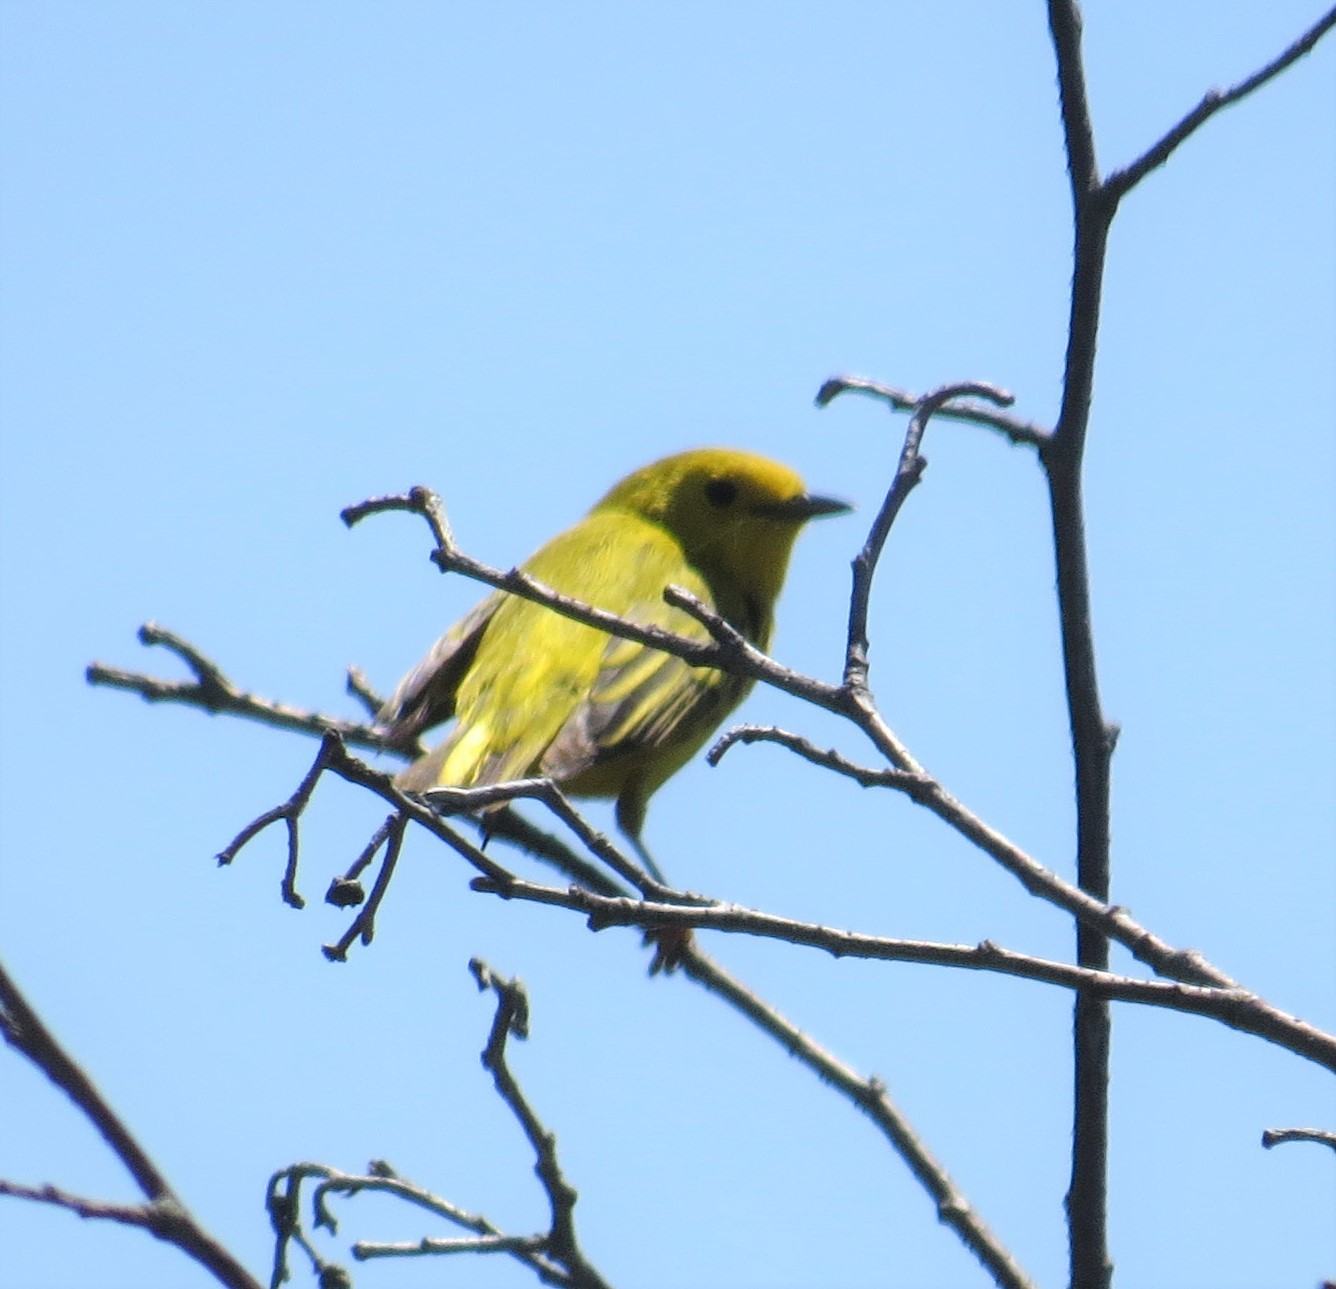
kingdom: Animalia
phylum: Chordata
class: Aves
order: Passeriformes
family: Parulidae
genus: Setophaga
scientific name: Setophaga petechia
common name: Yellow warbler
